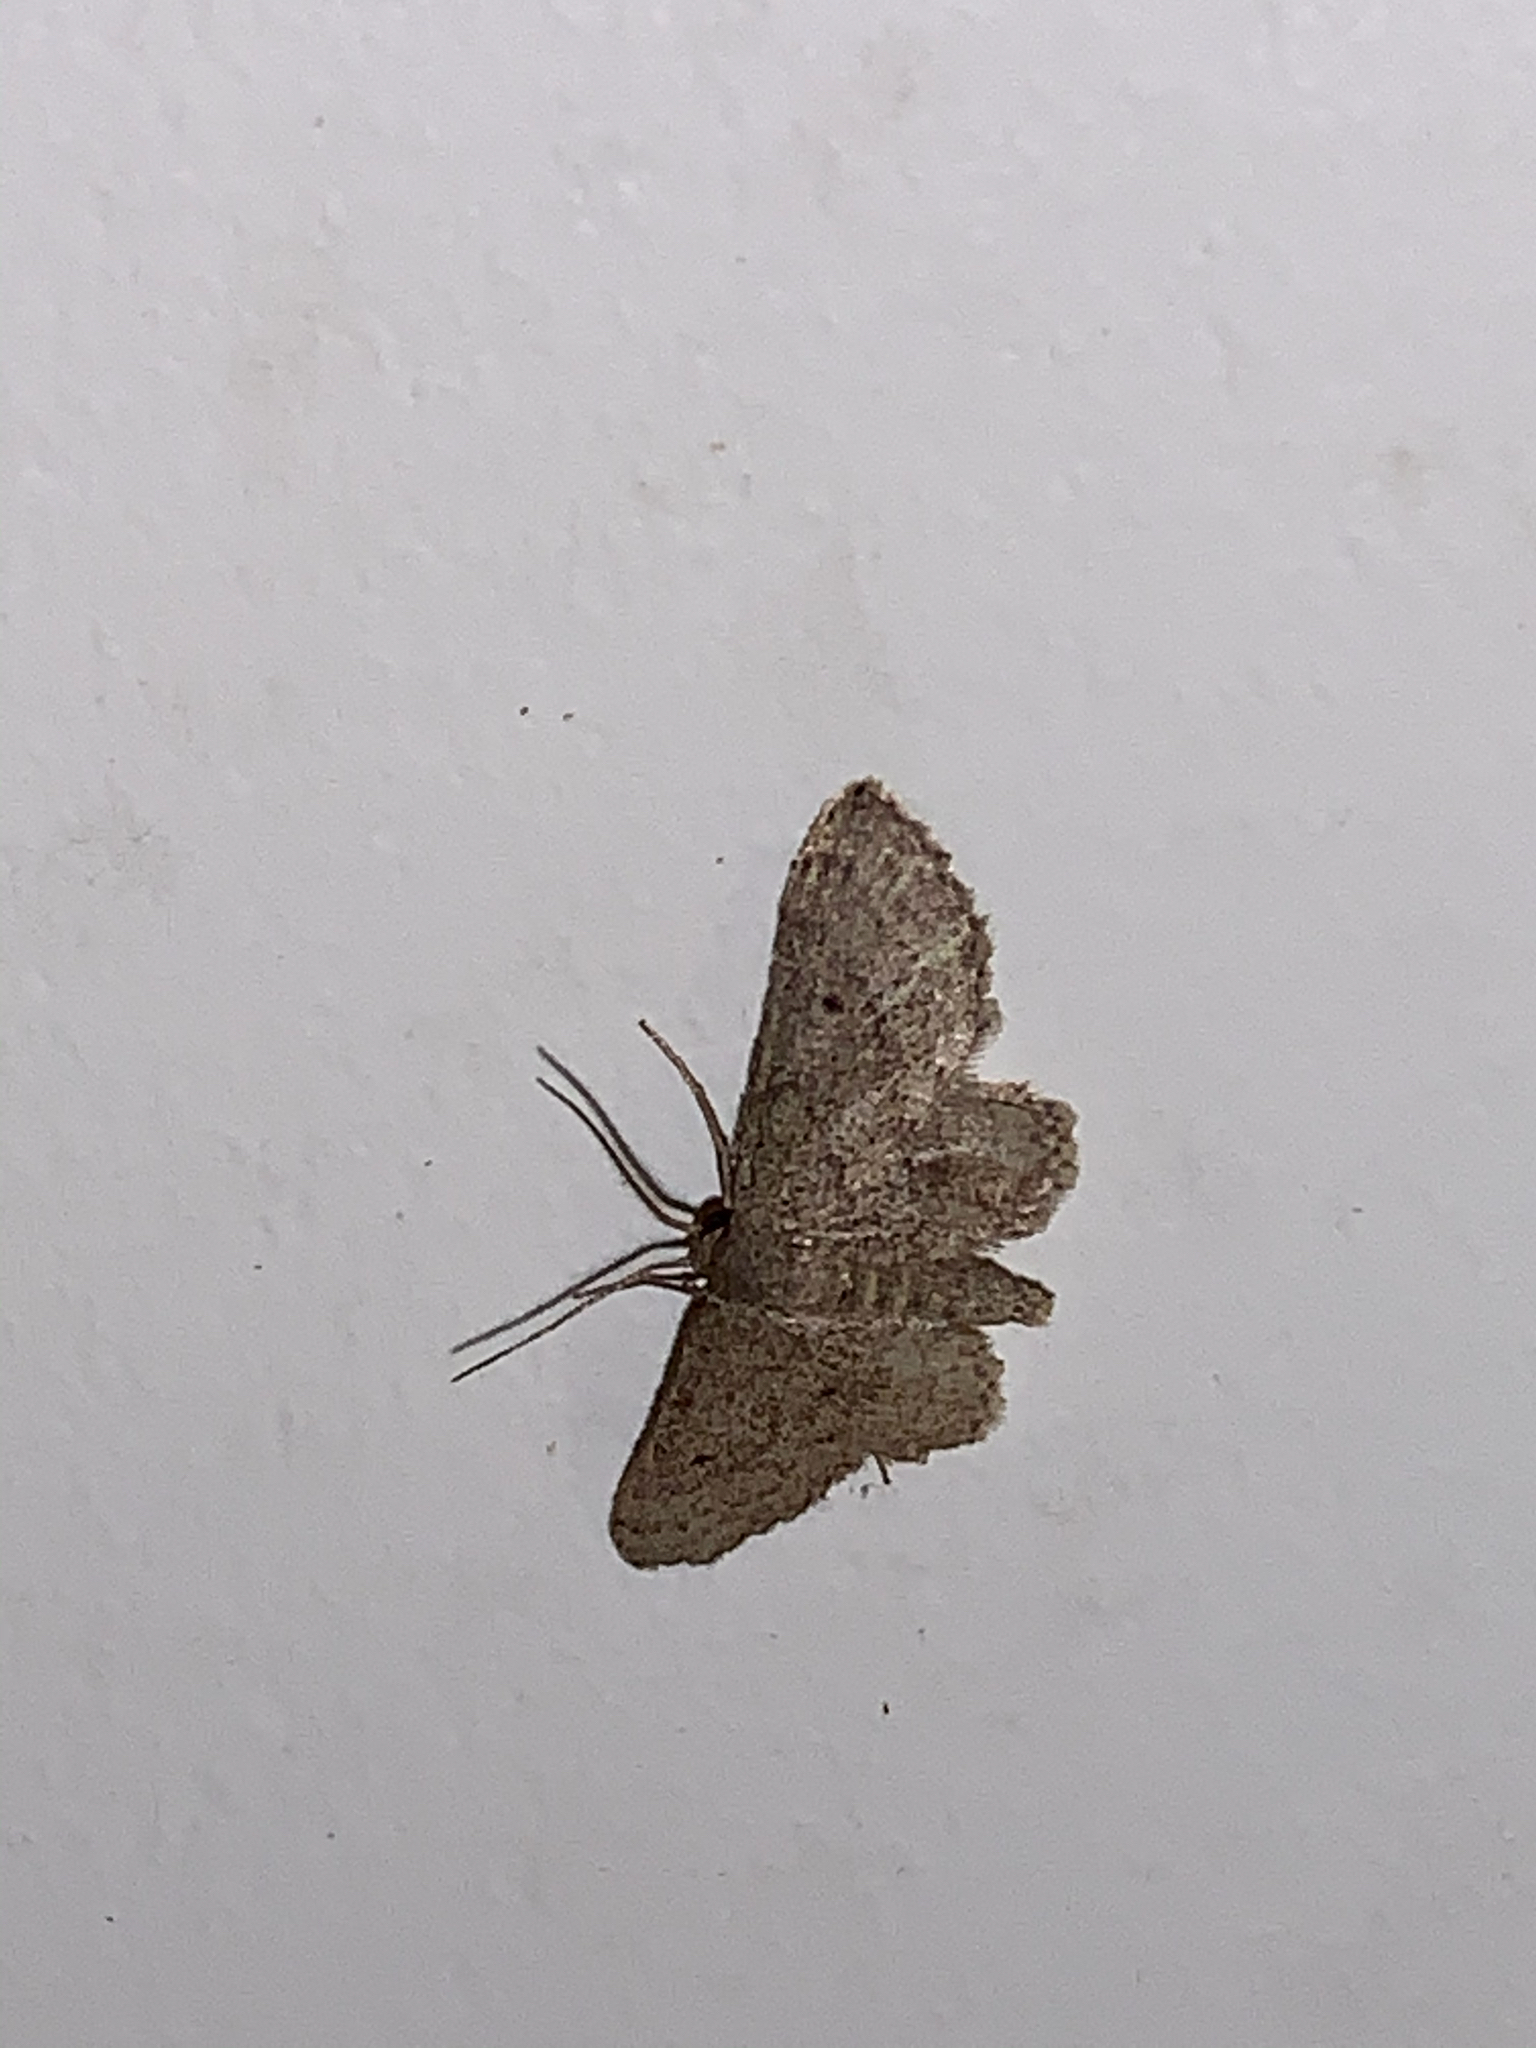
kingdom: Animalia
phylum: Arthropoda
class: Insecta
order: Lepidoptera
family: Geometridae
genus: Lobocleta
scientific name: Lobocleta ossularia
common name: Drab brown wave
